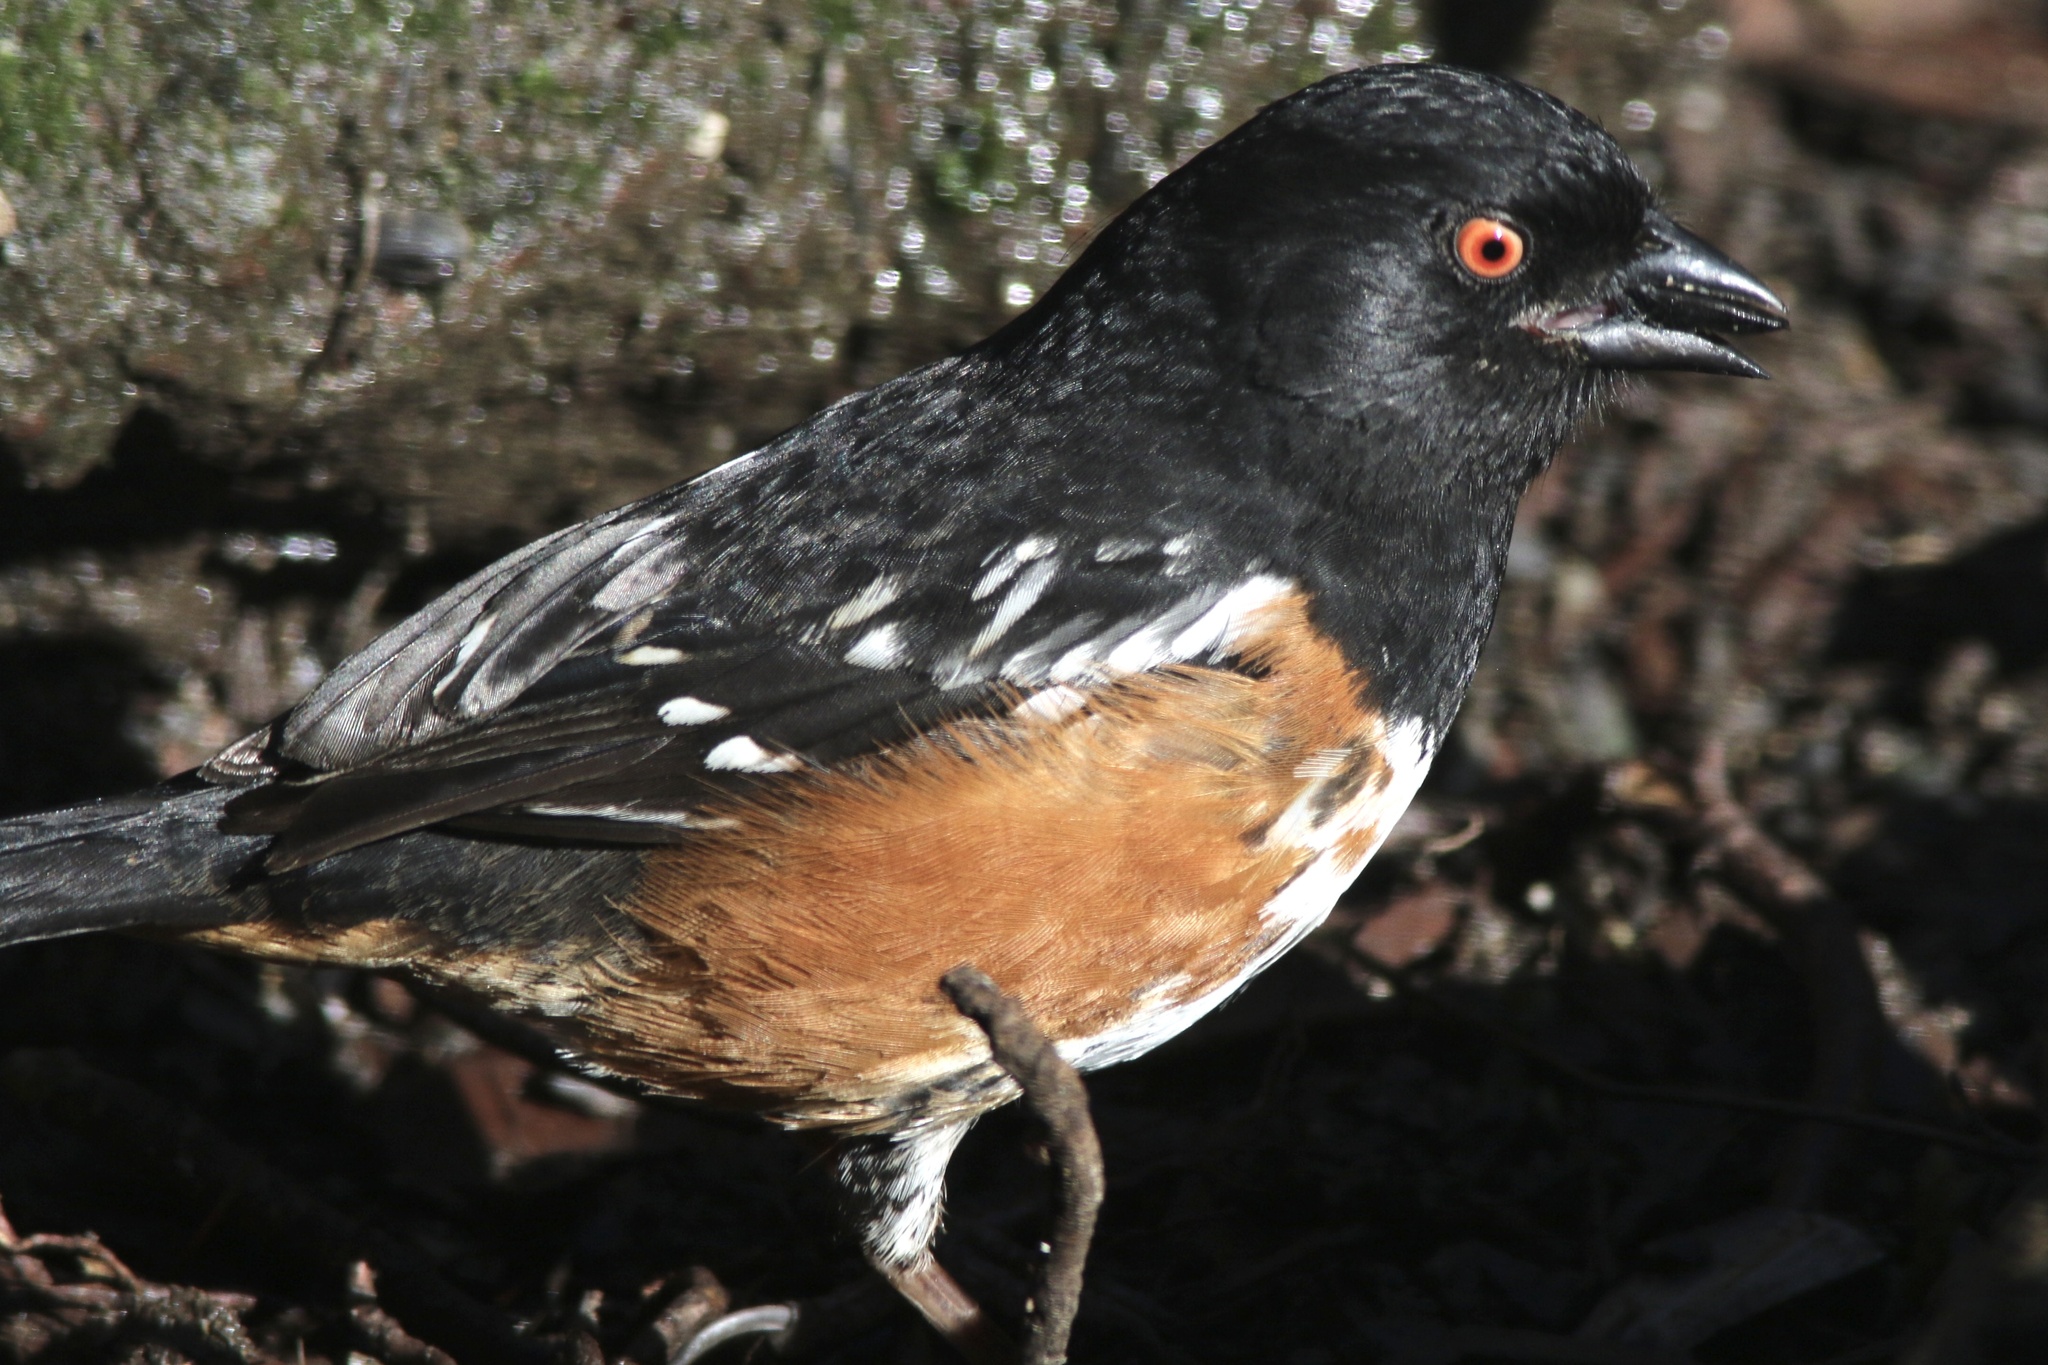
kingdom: Animalia
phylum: Chordata
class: Aves
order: Passeriformes
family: Passerellidae
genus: Pipilo
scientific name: Pipilo maculatus
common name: Spotted towhee
